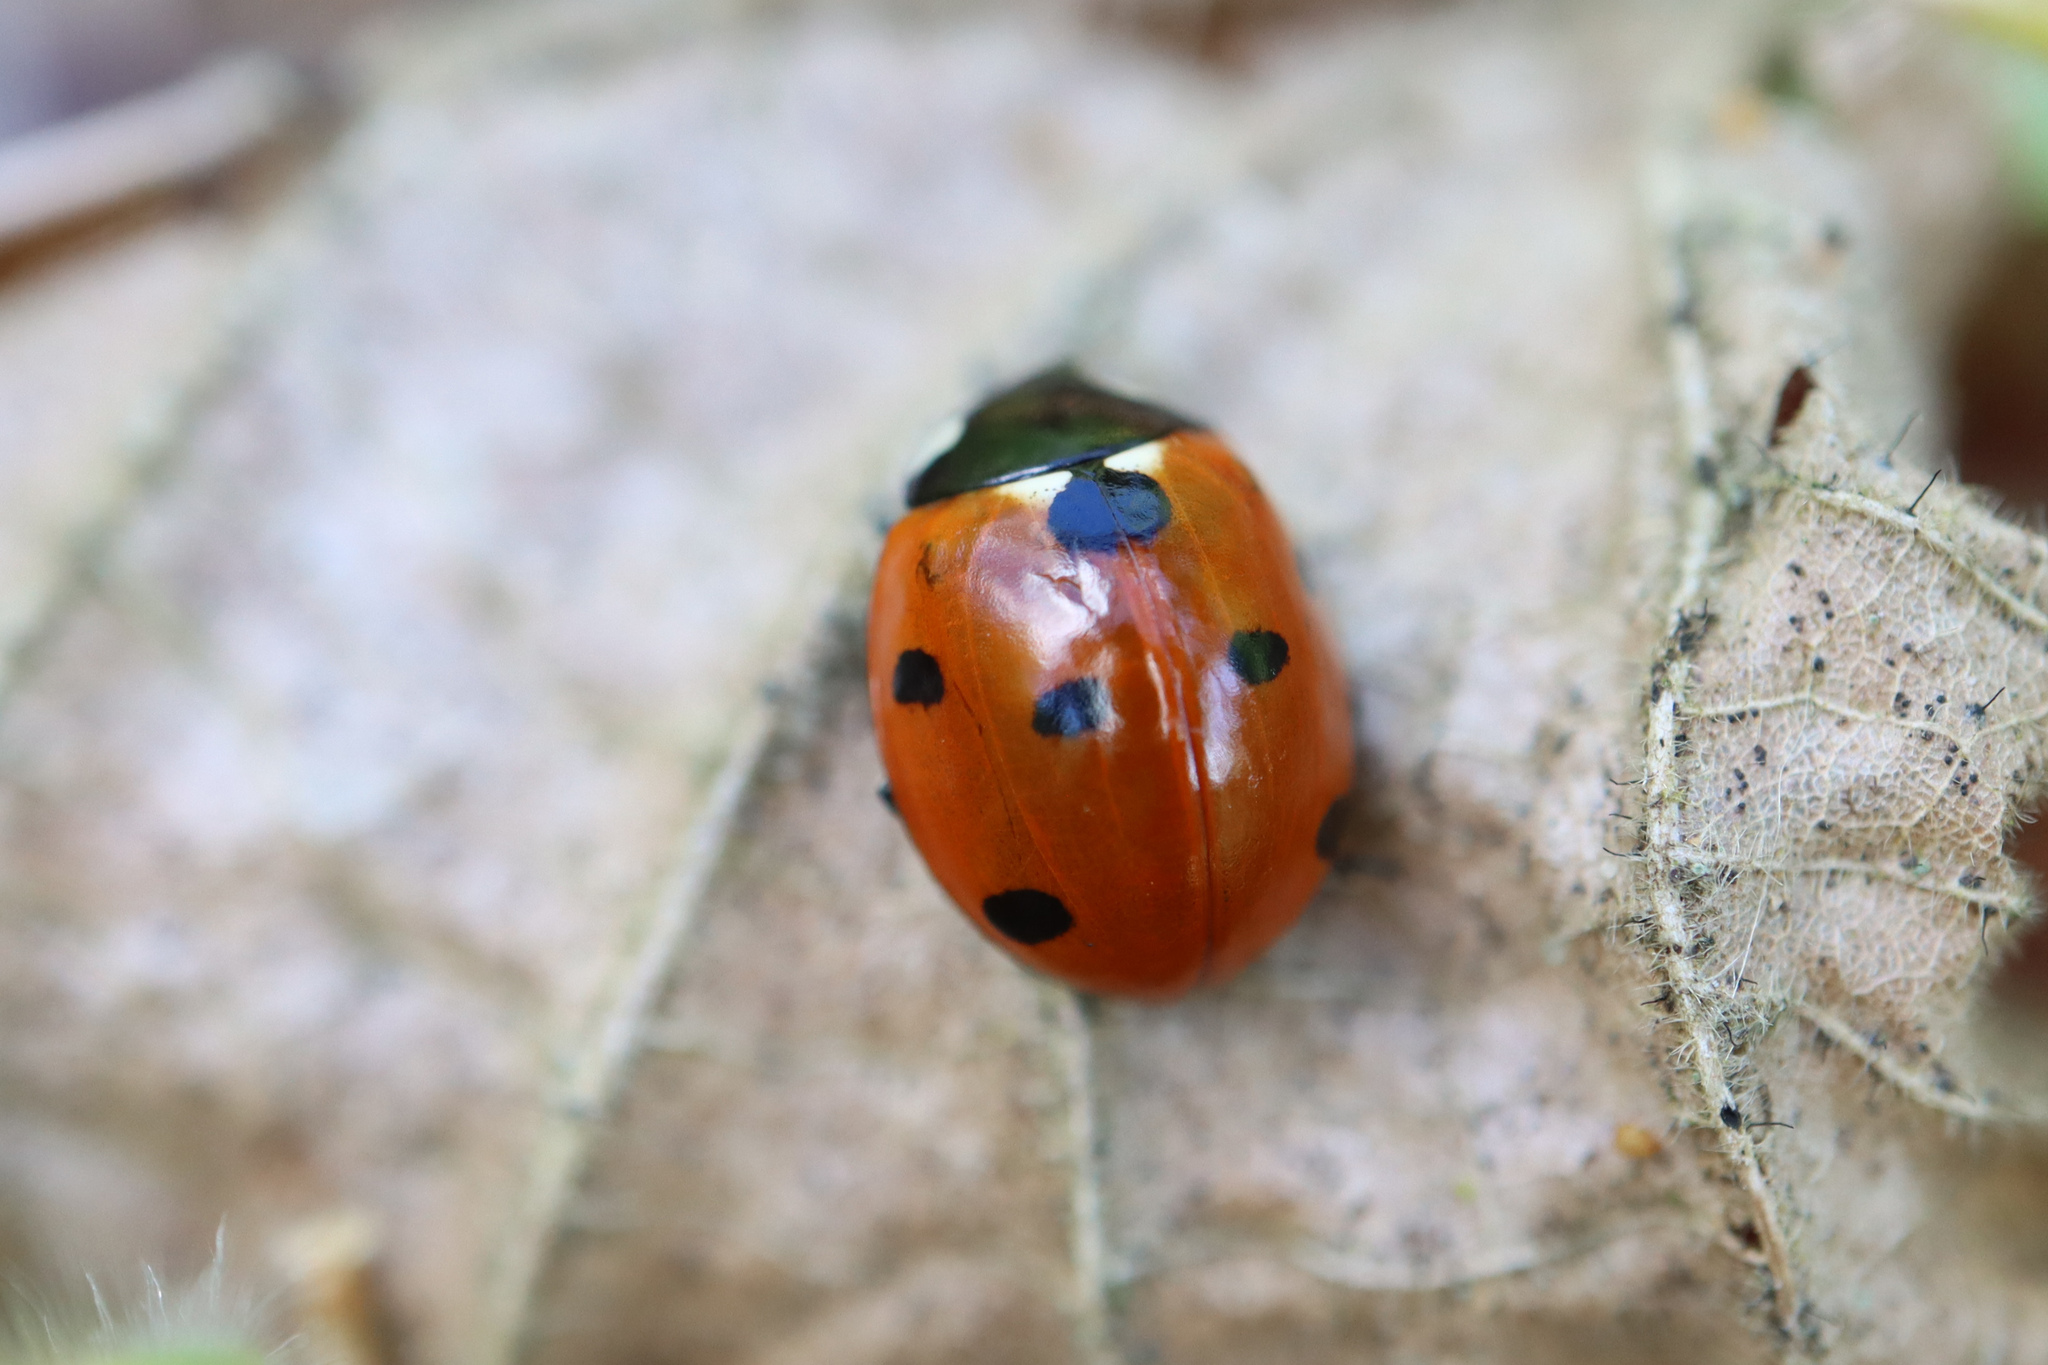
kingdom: Animalia
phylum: Arthropoda
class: Insecta
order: Coleoptera
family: Coccinellidae
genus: Coccinella
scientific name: Coccinella septempunctata
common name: Sevenspotted lady beetle
